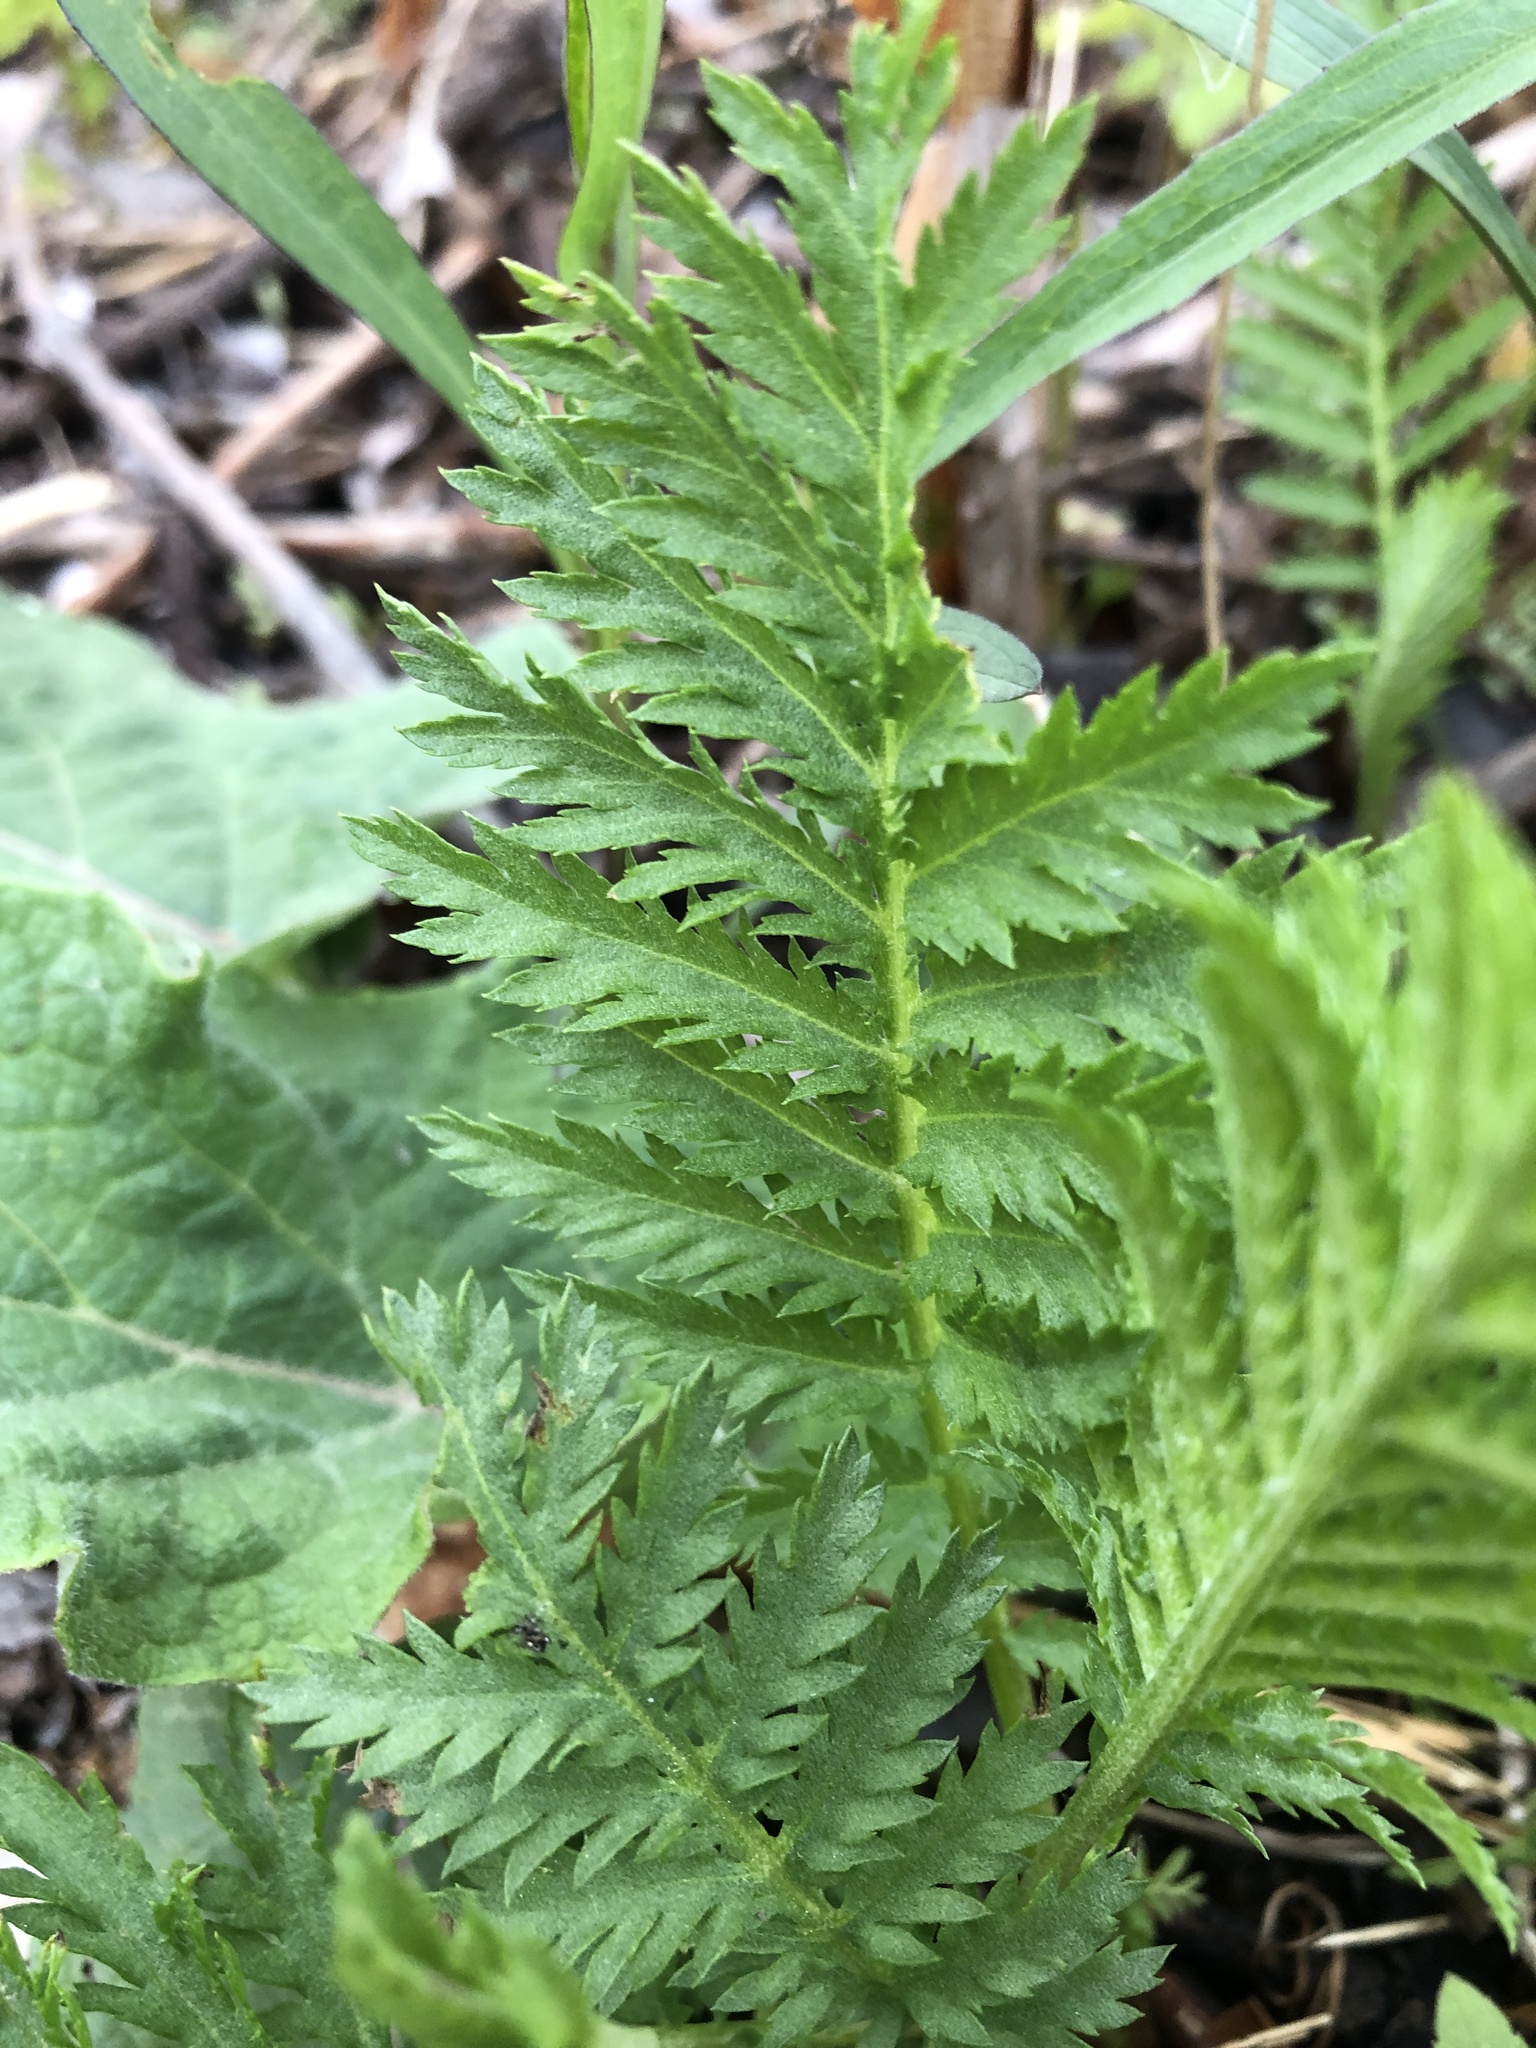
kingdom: Plantae
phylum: Tracheophyta
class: Magnoliopsida
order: Asterales
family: Asteraceae
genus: Tanacetum
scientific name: Tanacetum vulgare
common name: Common tansy
